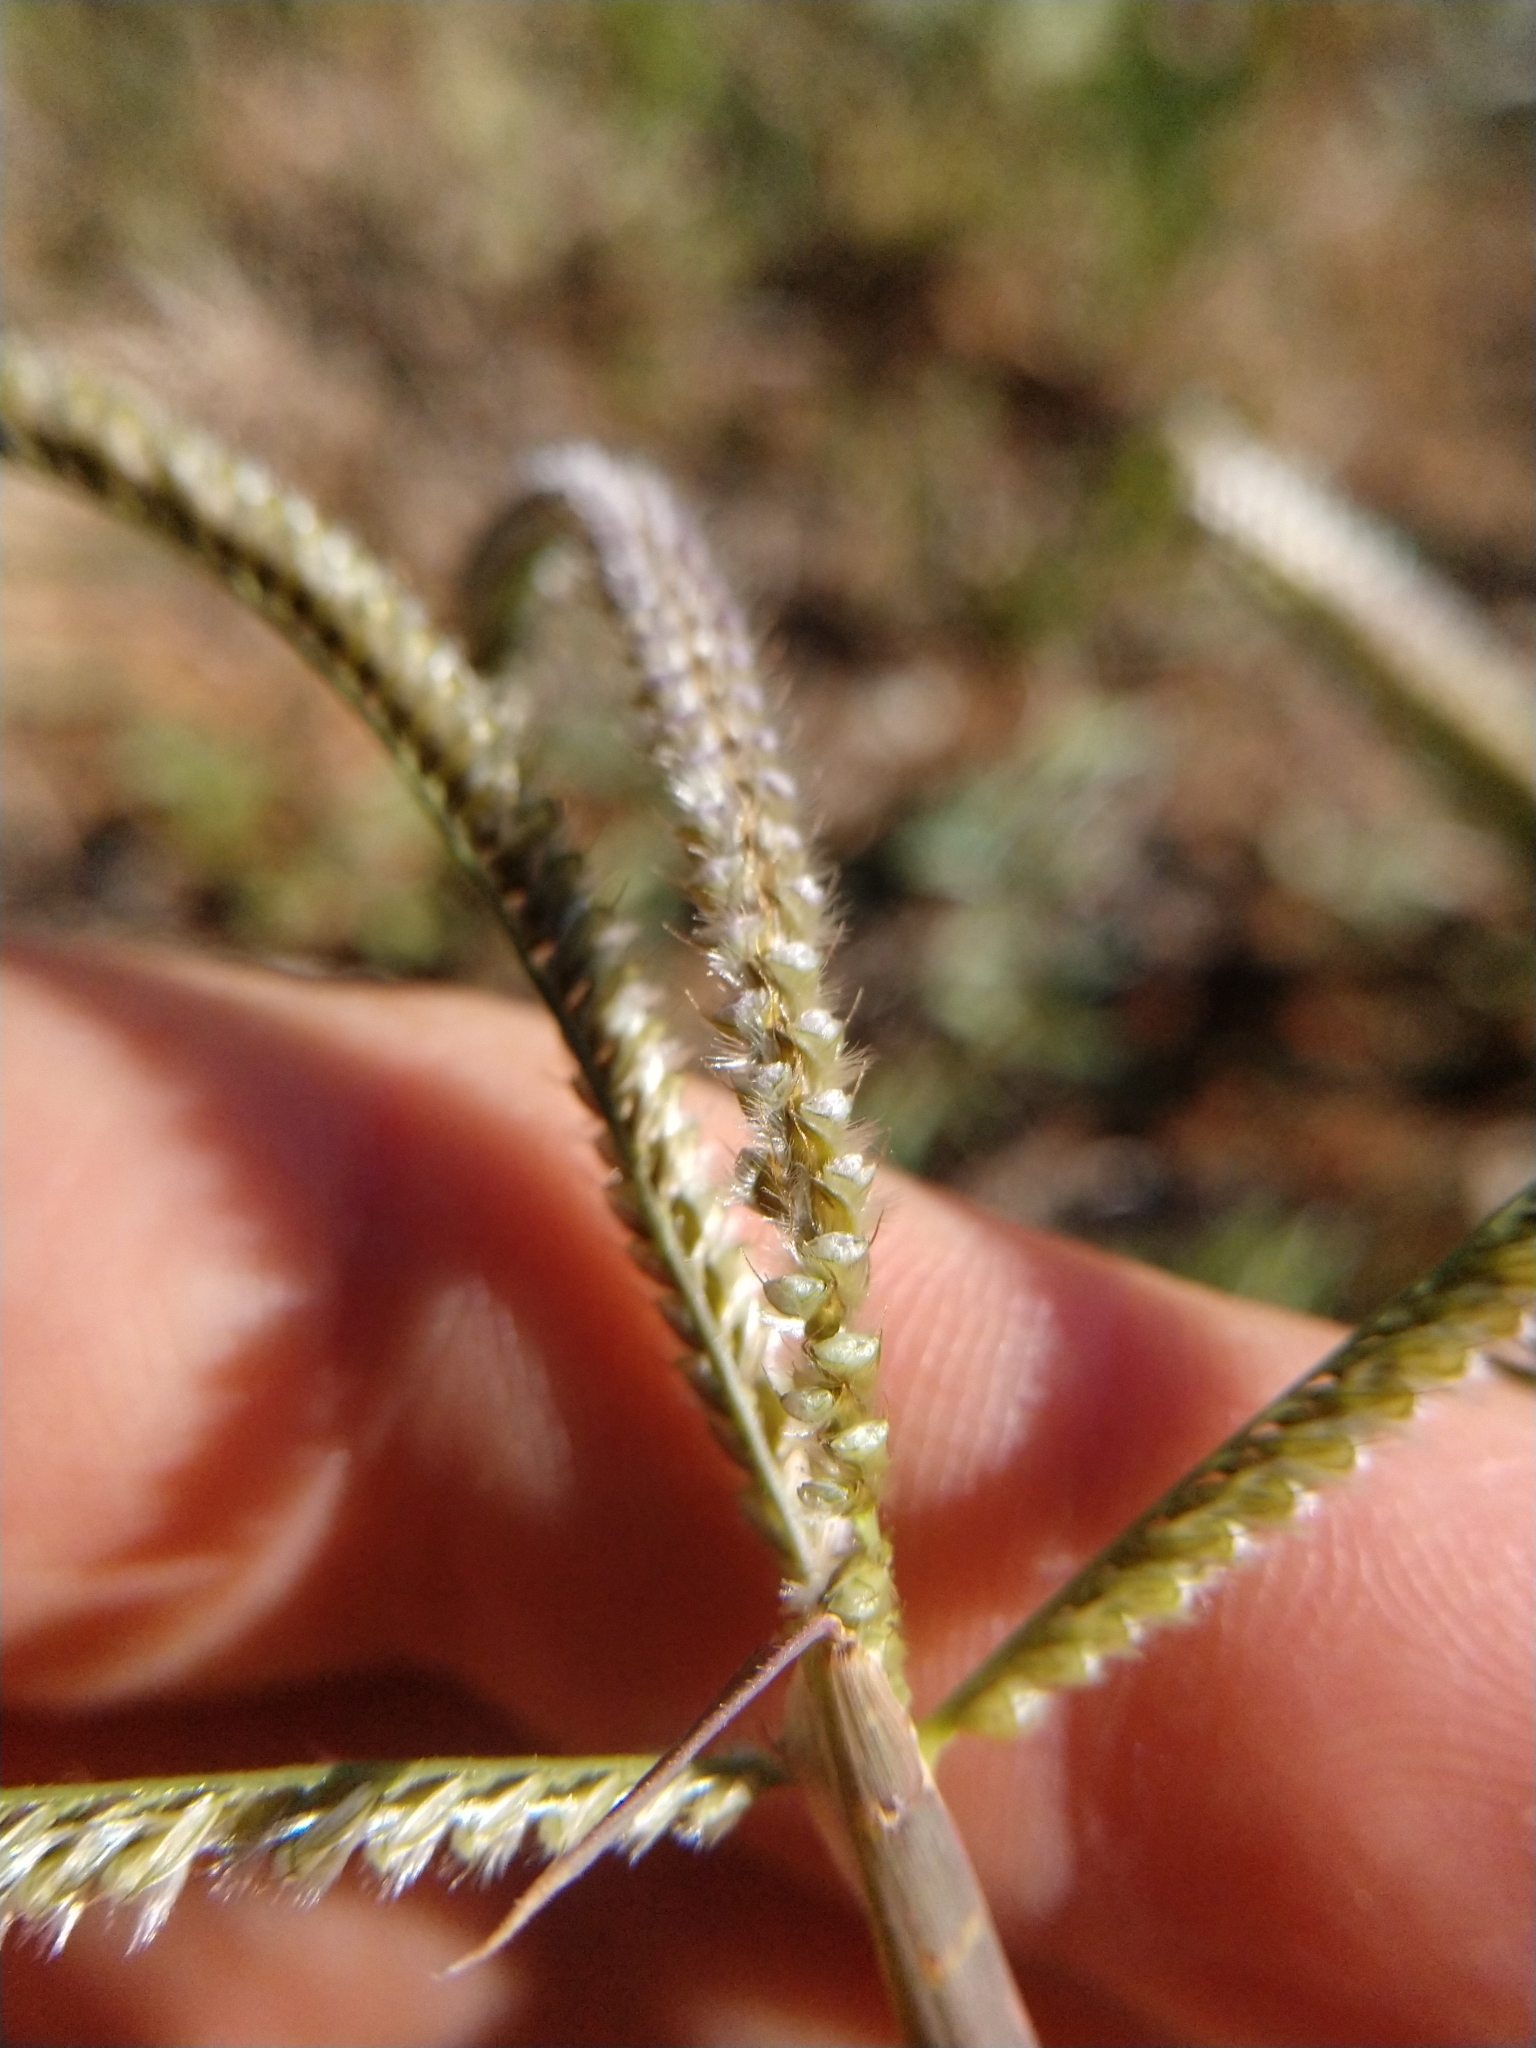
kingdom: Plantae
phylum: Tracheophyta
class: Liliopsida
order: Poales
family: Poaceae
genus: Stapfochloa
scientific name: Stapfochloa ciliata
